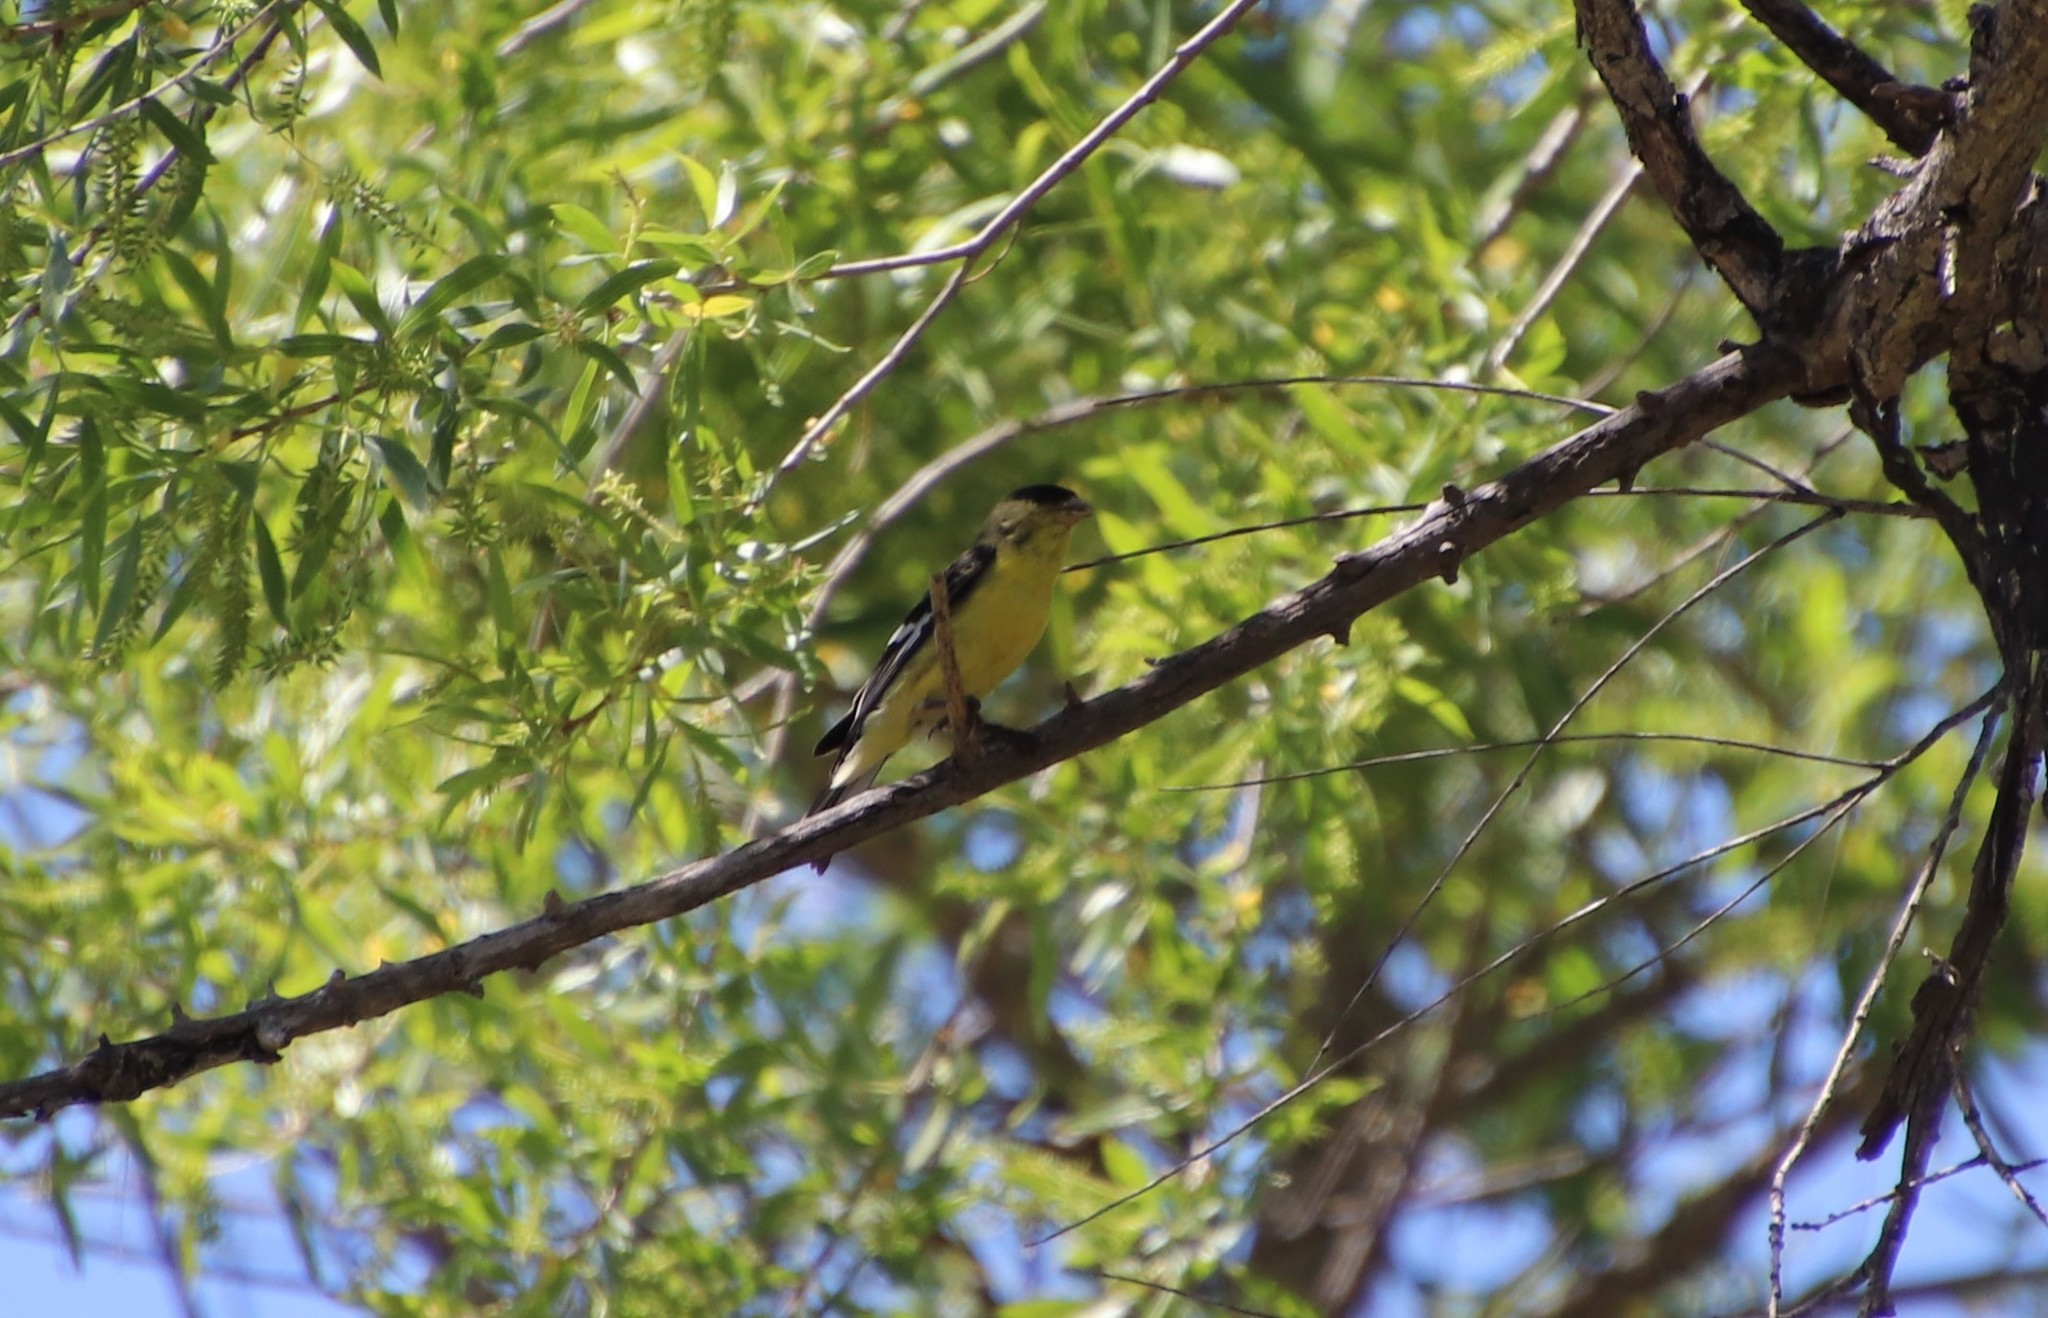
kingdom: Animalia
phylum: Chordata
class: Aves
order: Passeriformes
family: Fringillidae
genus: Spinus
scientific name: Spinus psaltria
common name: Lesser goldfinch
